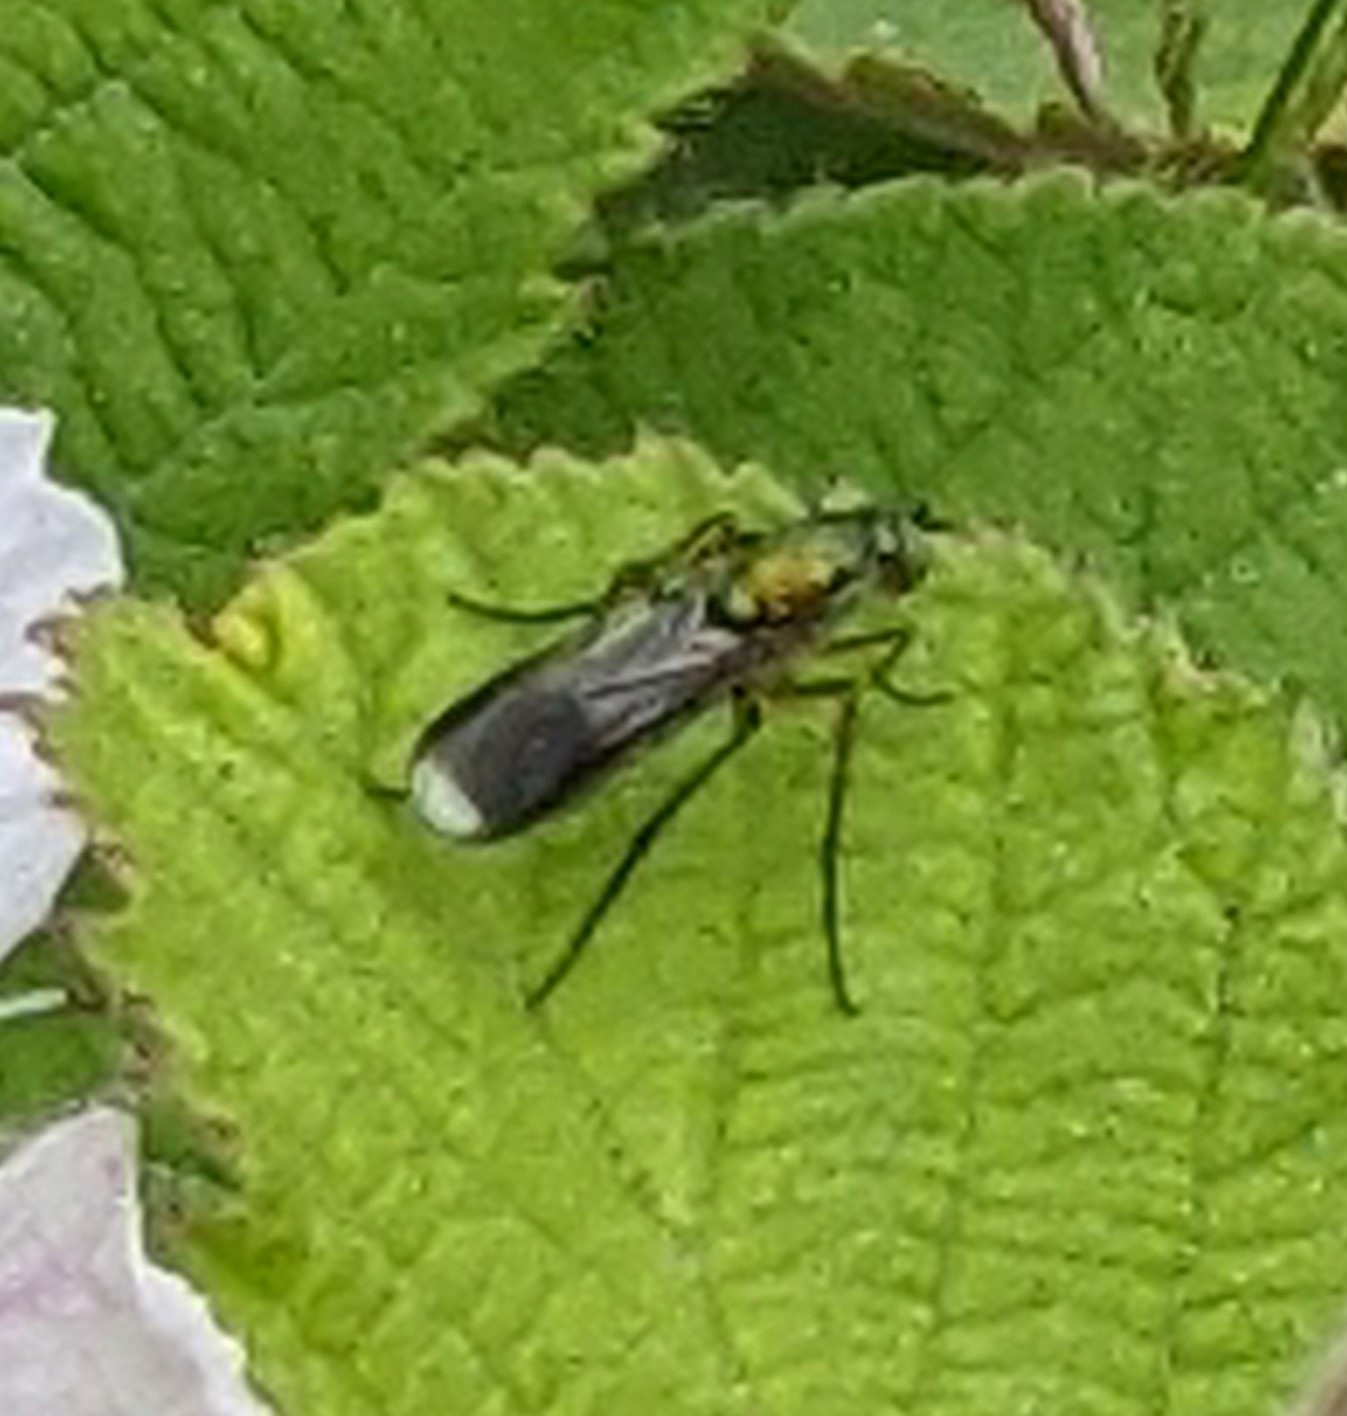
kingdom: Animalia
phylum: Arthropoda
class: Insecta
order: Diptera
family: Dolichopodidae
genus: Poecilobothrus
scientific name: Poecilobothrus nobilitatus
